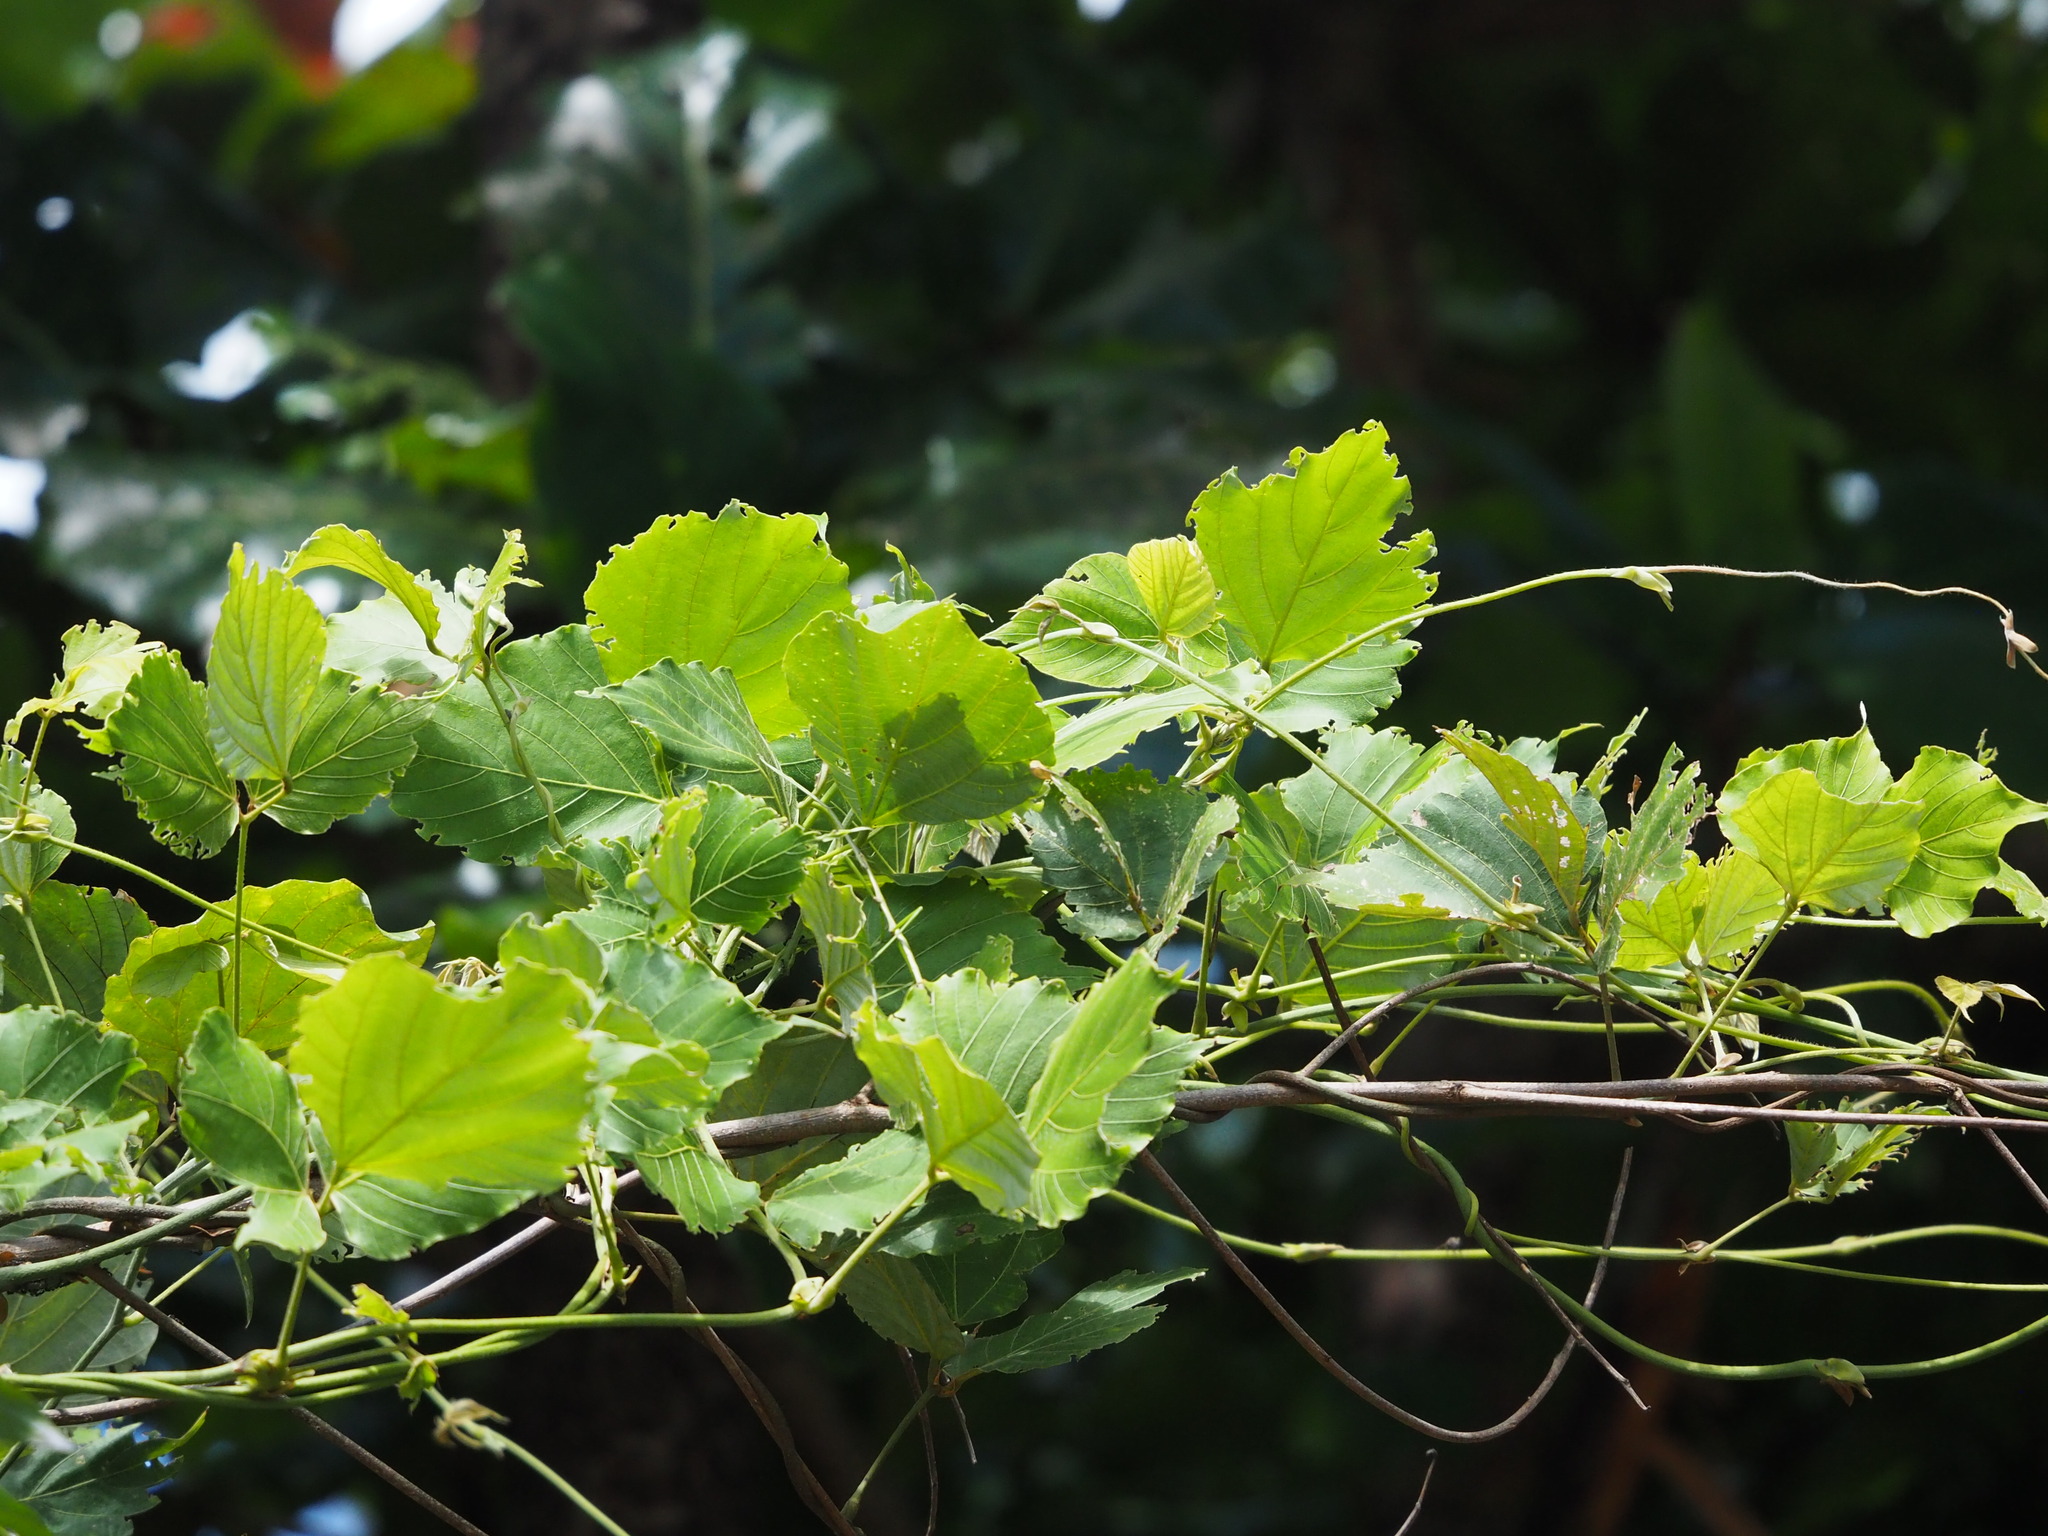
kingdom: Plantae
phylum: Tracheophyta
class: Magnoliopsida
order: Fabales
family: Fabaceae
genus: Pueraria
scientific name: Pueraria montana
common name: Kudzu
